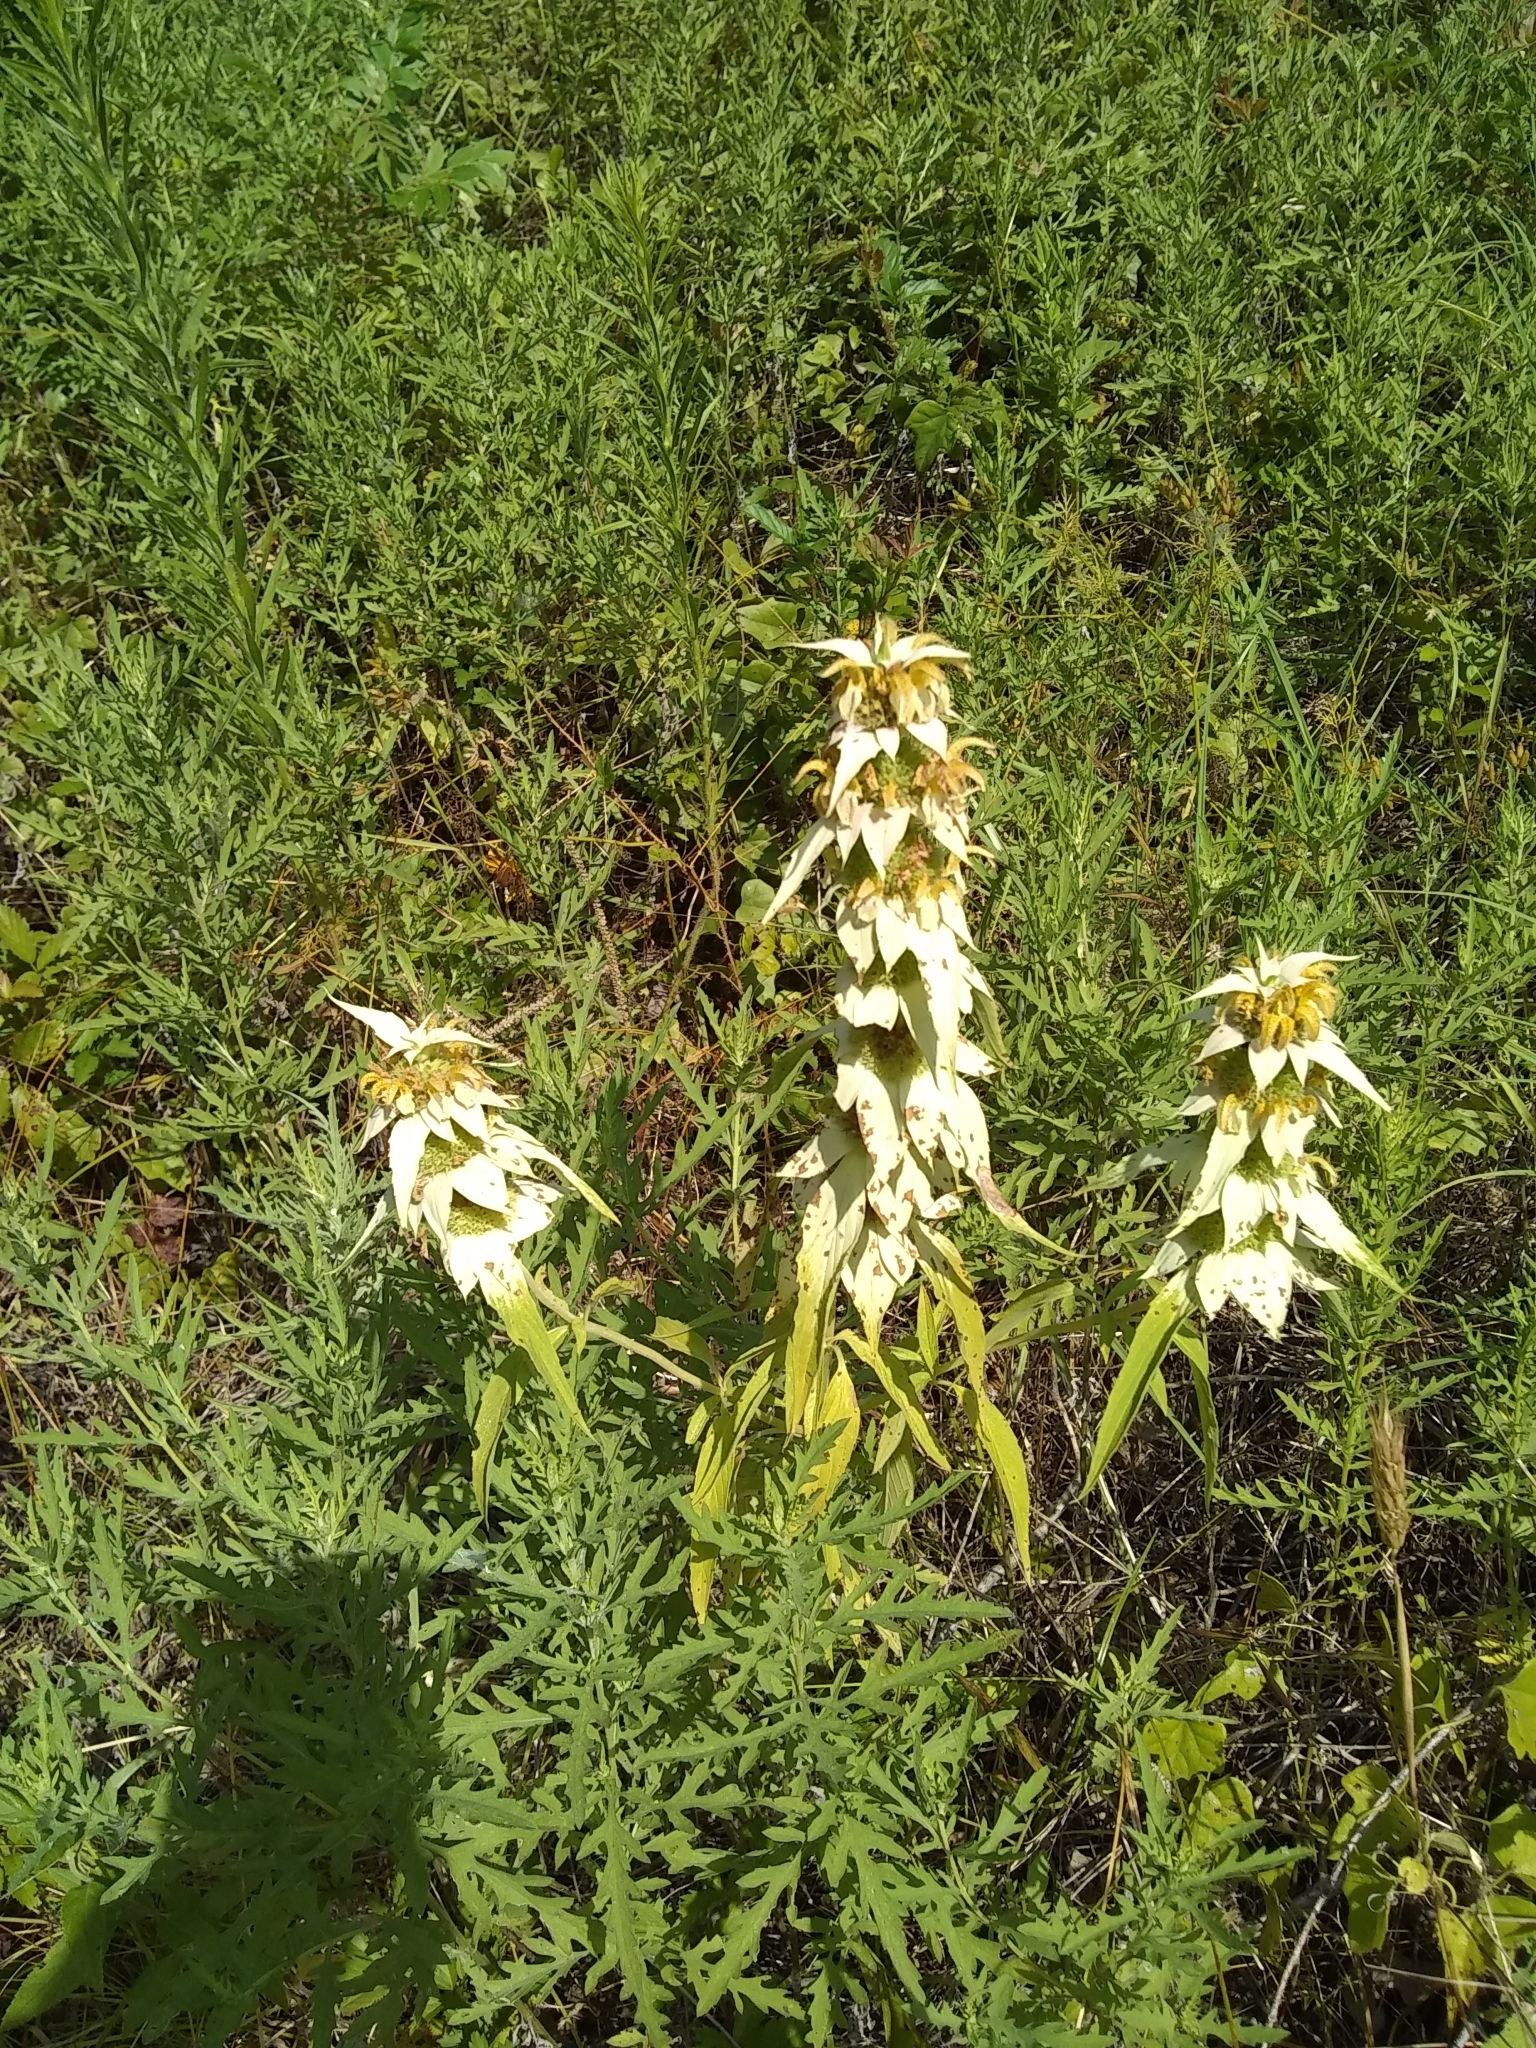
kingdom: Plantae
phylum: Tracheophyta
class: Magnoliopsida
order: Lamiales
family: Lamiaceae
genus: Monarda
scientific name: Monarda punctata
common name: Dotted monarda
